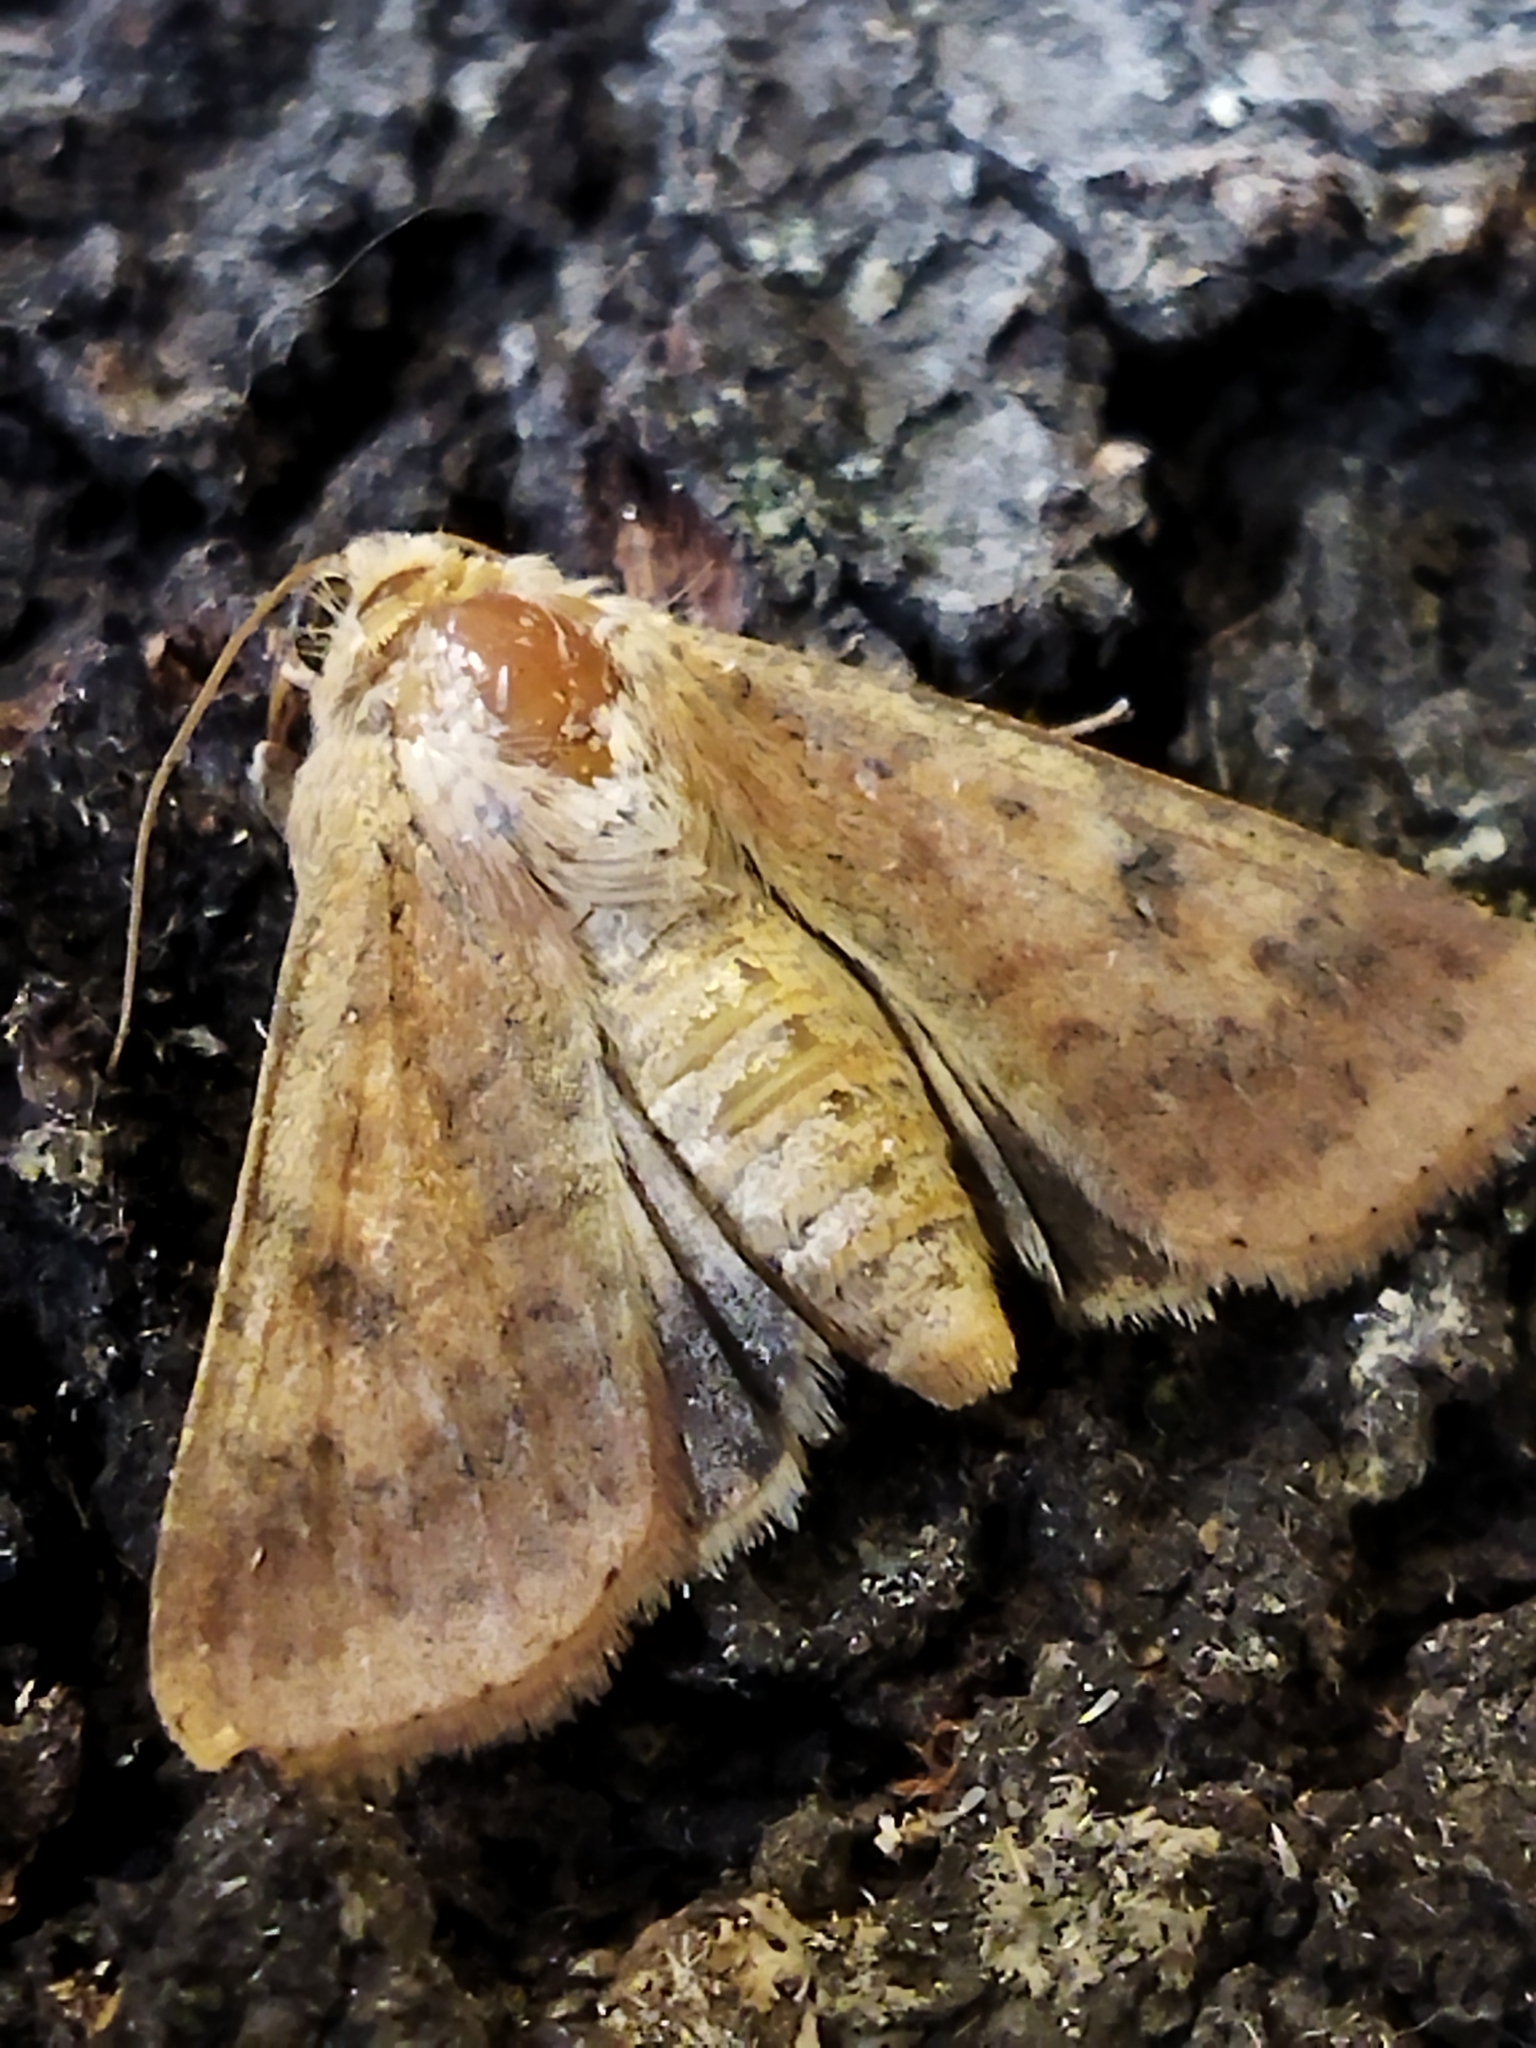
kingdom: Animalia
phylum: Arthropoda
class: Insecta
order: Lepidoptera
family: Noctuidae
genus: Helicoverpa
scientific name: Helicoverpa armigera
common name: Cotton bollworm
